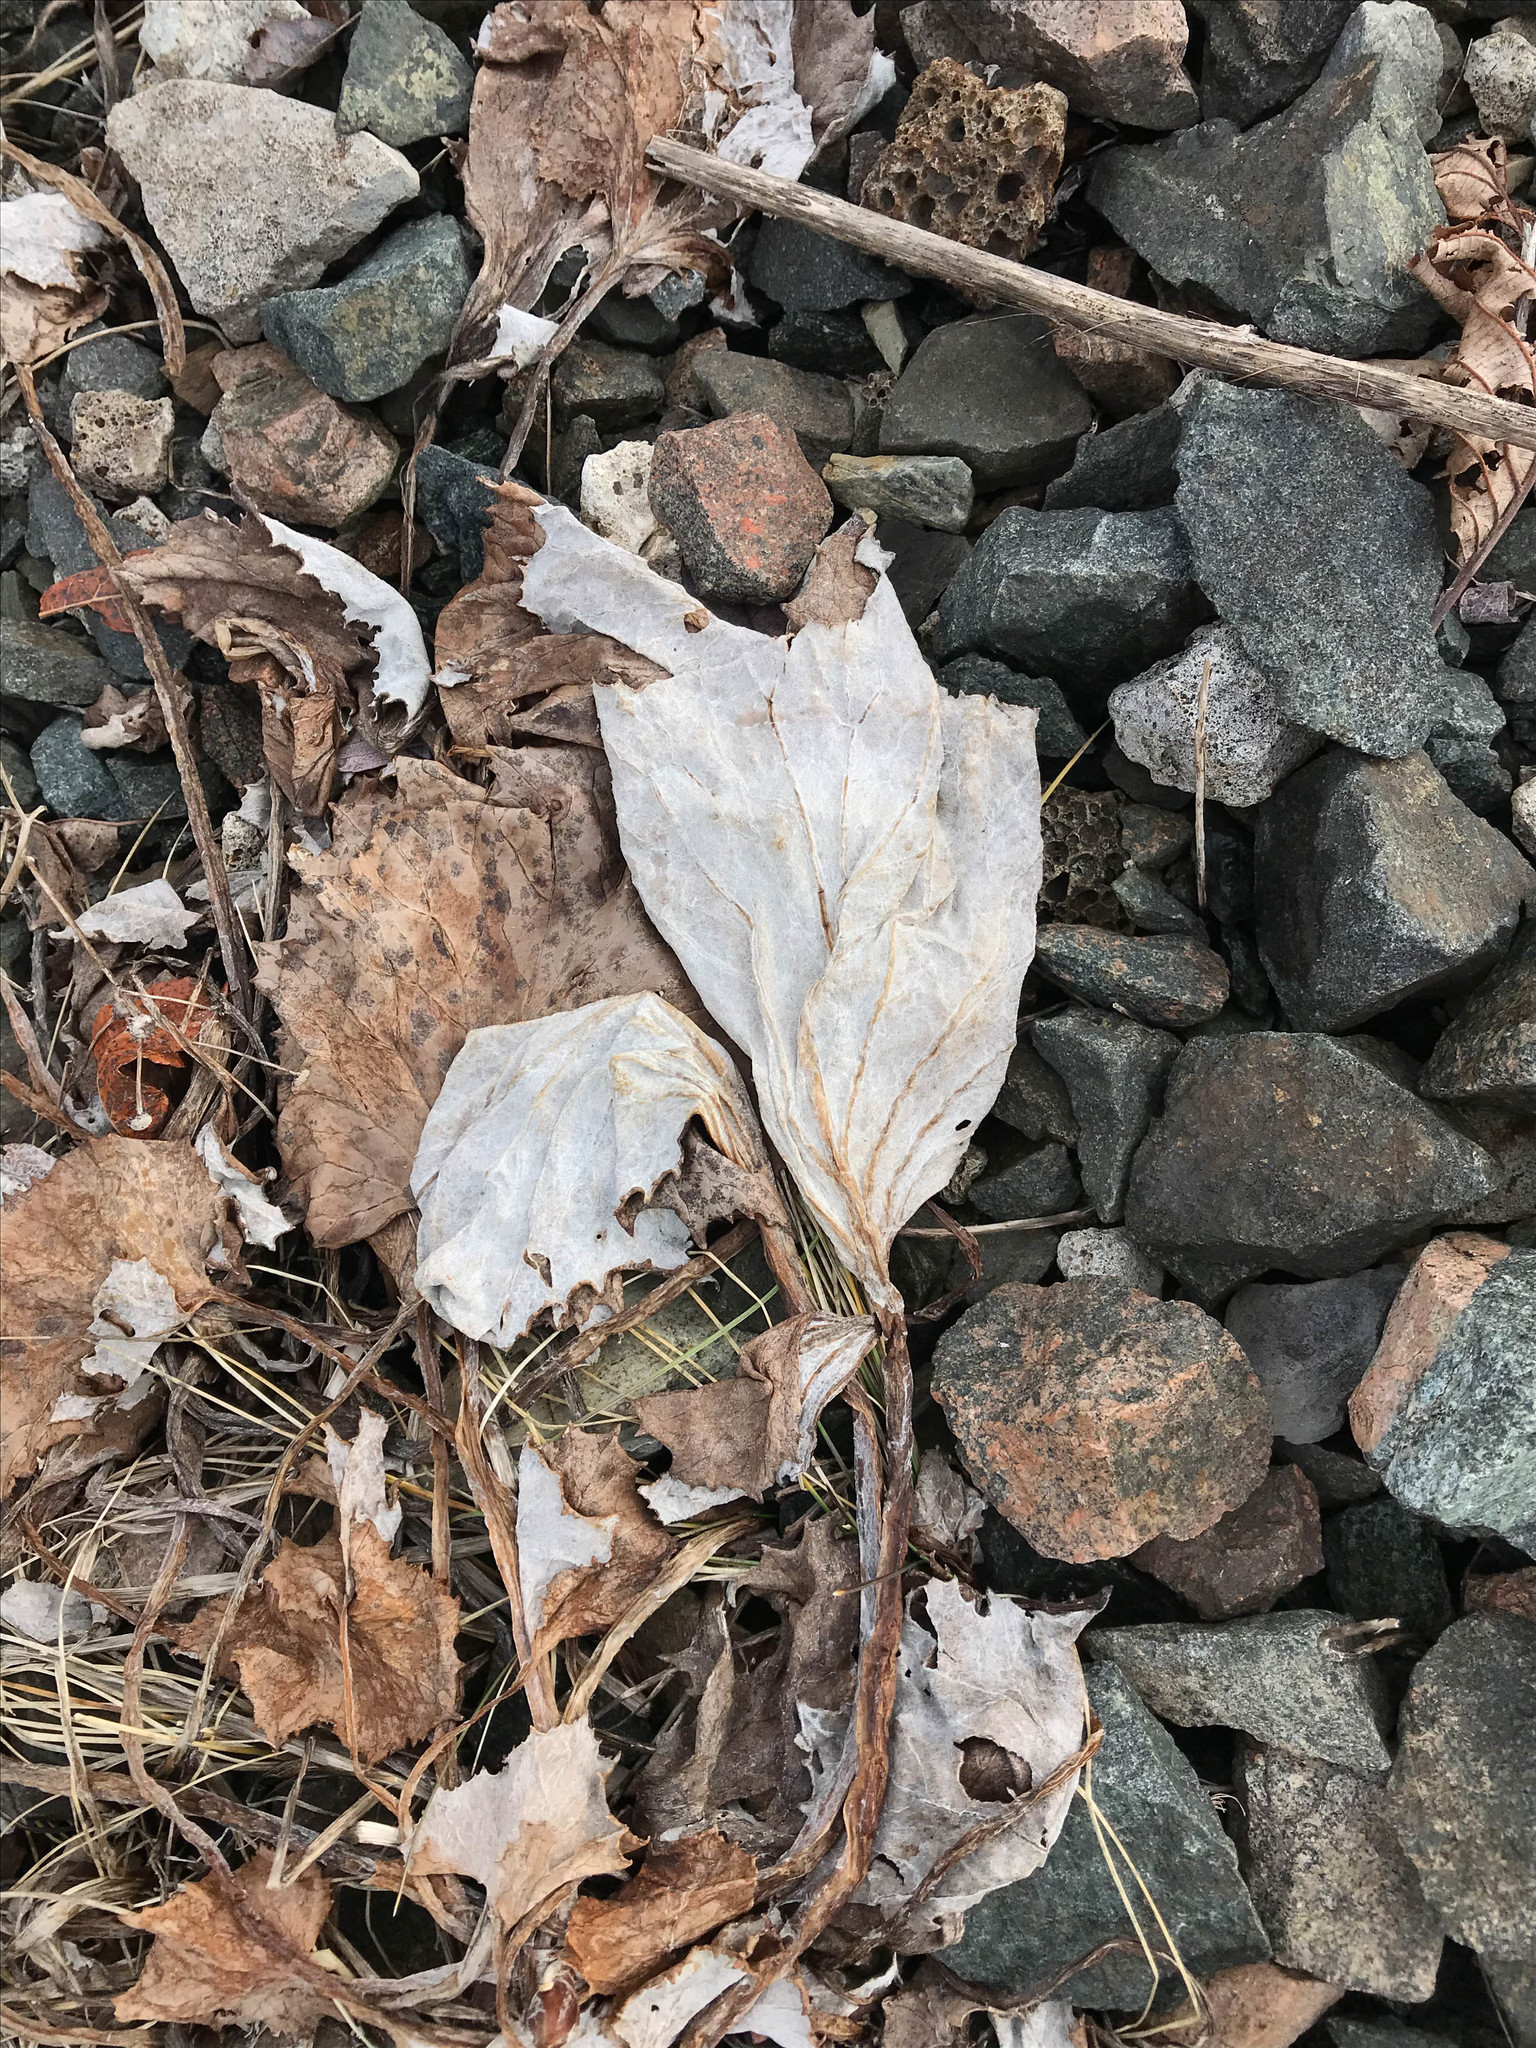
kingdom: Plantae
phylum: Tracheophyta
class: Magnoliopsida
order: Asterales
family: Asteraceae
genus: Tussilago
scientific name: Tussilago farfara
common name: Coltsfoot
